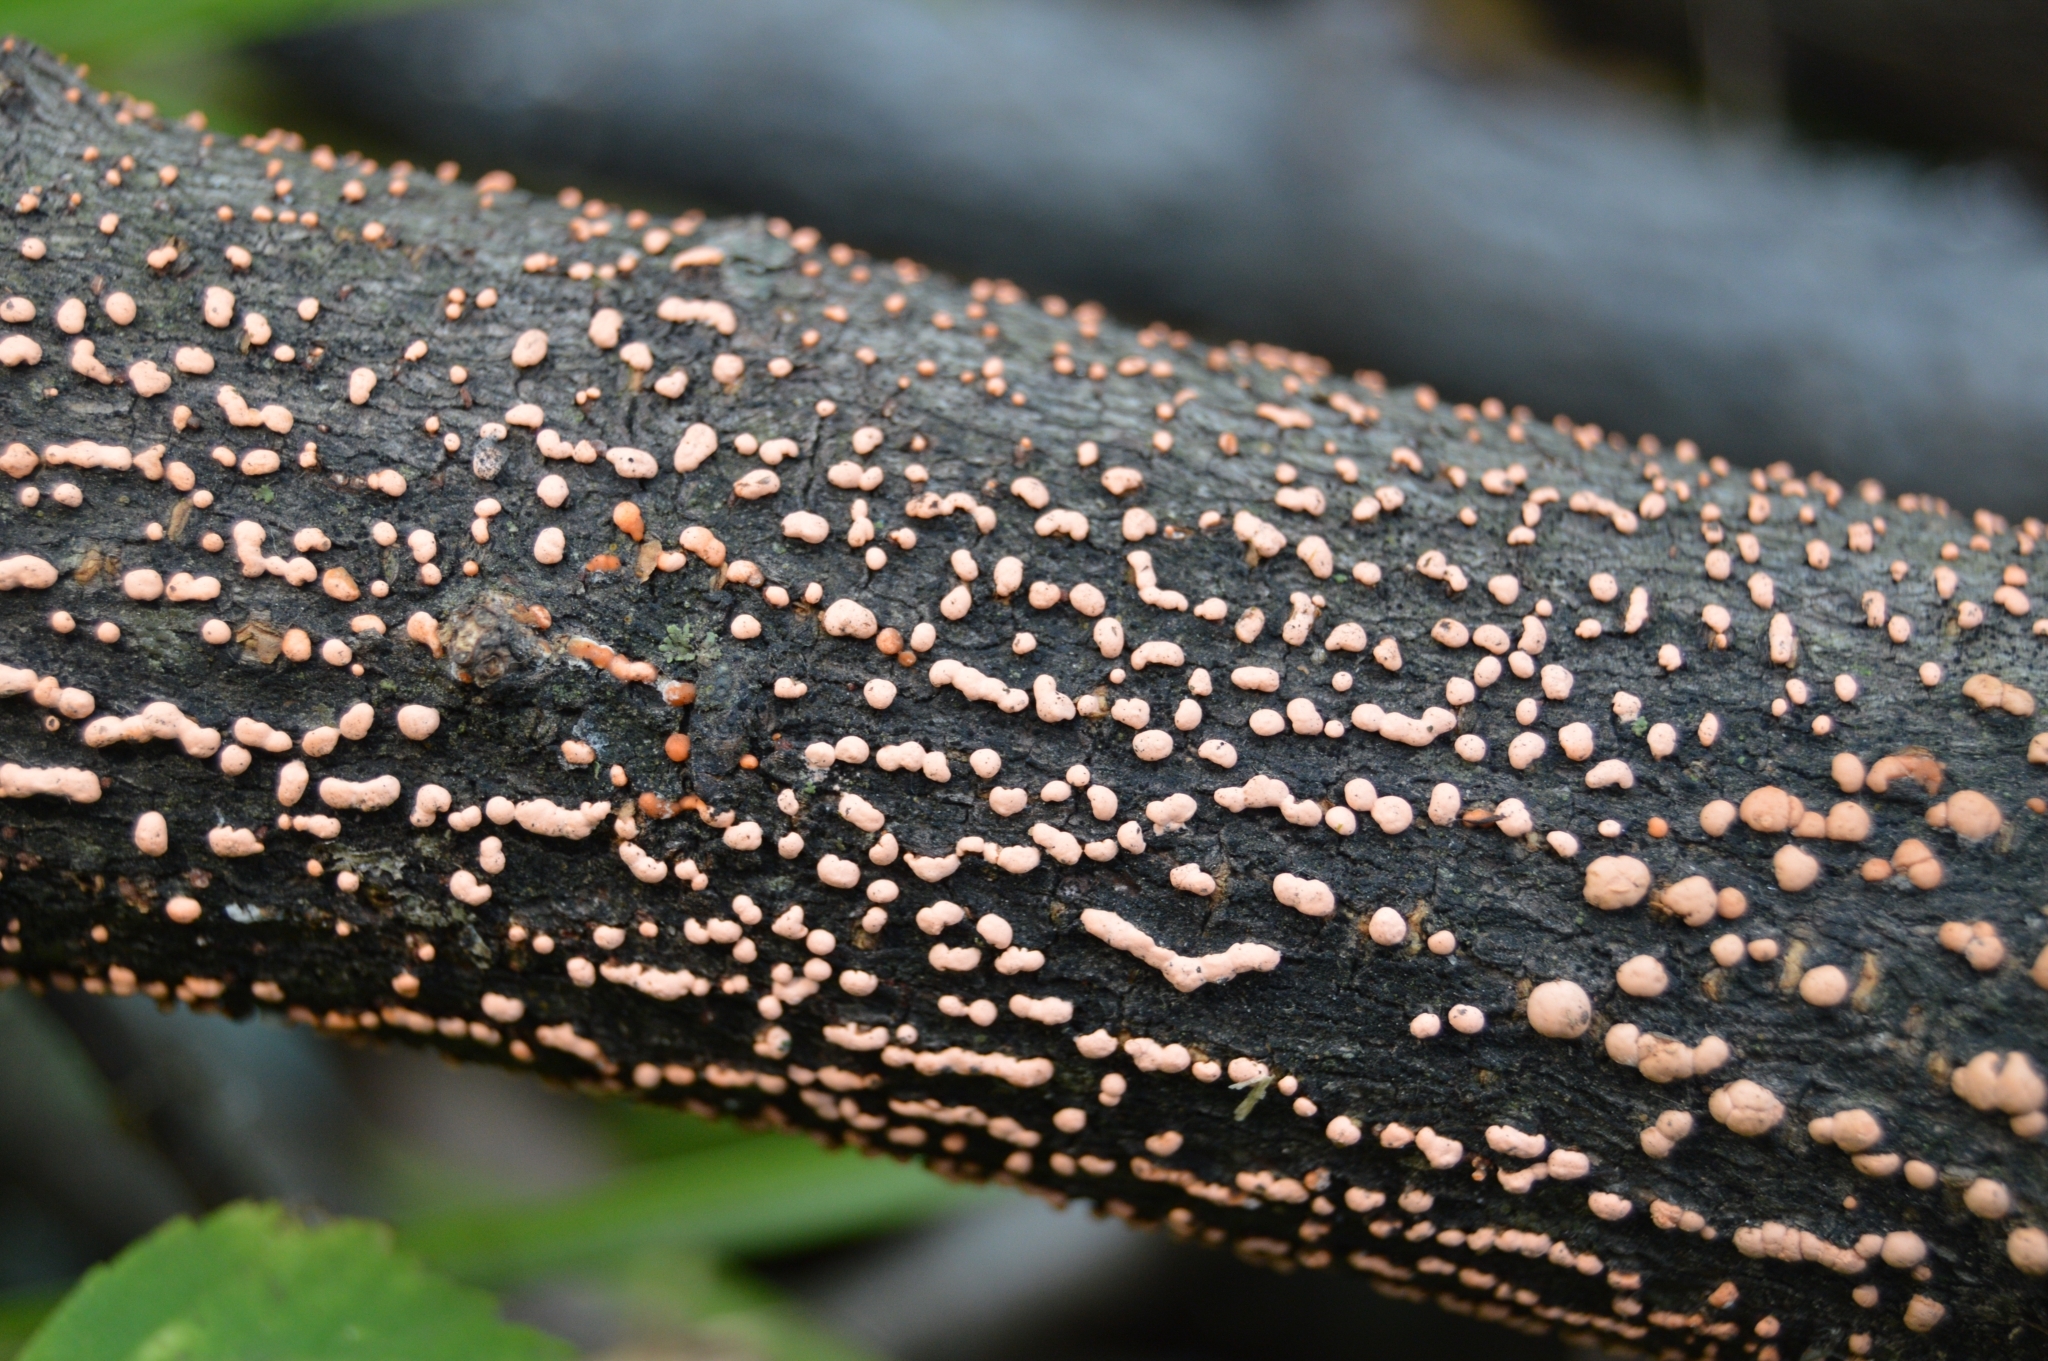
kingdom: Fungi
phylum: Ascomycota
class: Sordariomycetes
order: Hypocreales
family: Nectriaceae
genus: Nectria
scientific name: Nectria cinnabarina
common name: Coral spot
